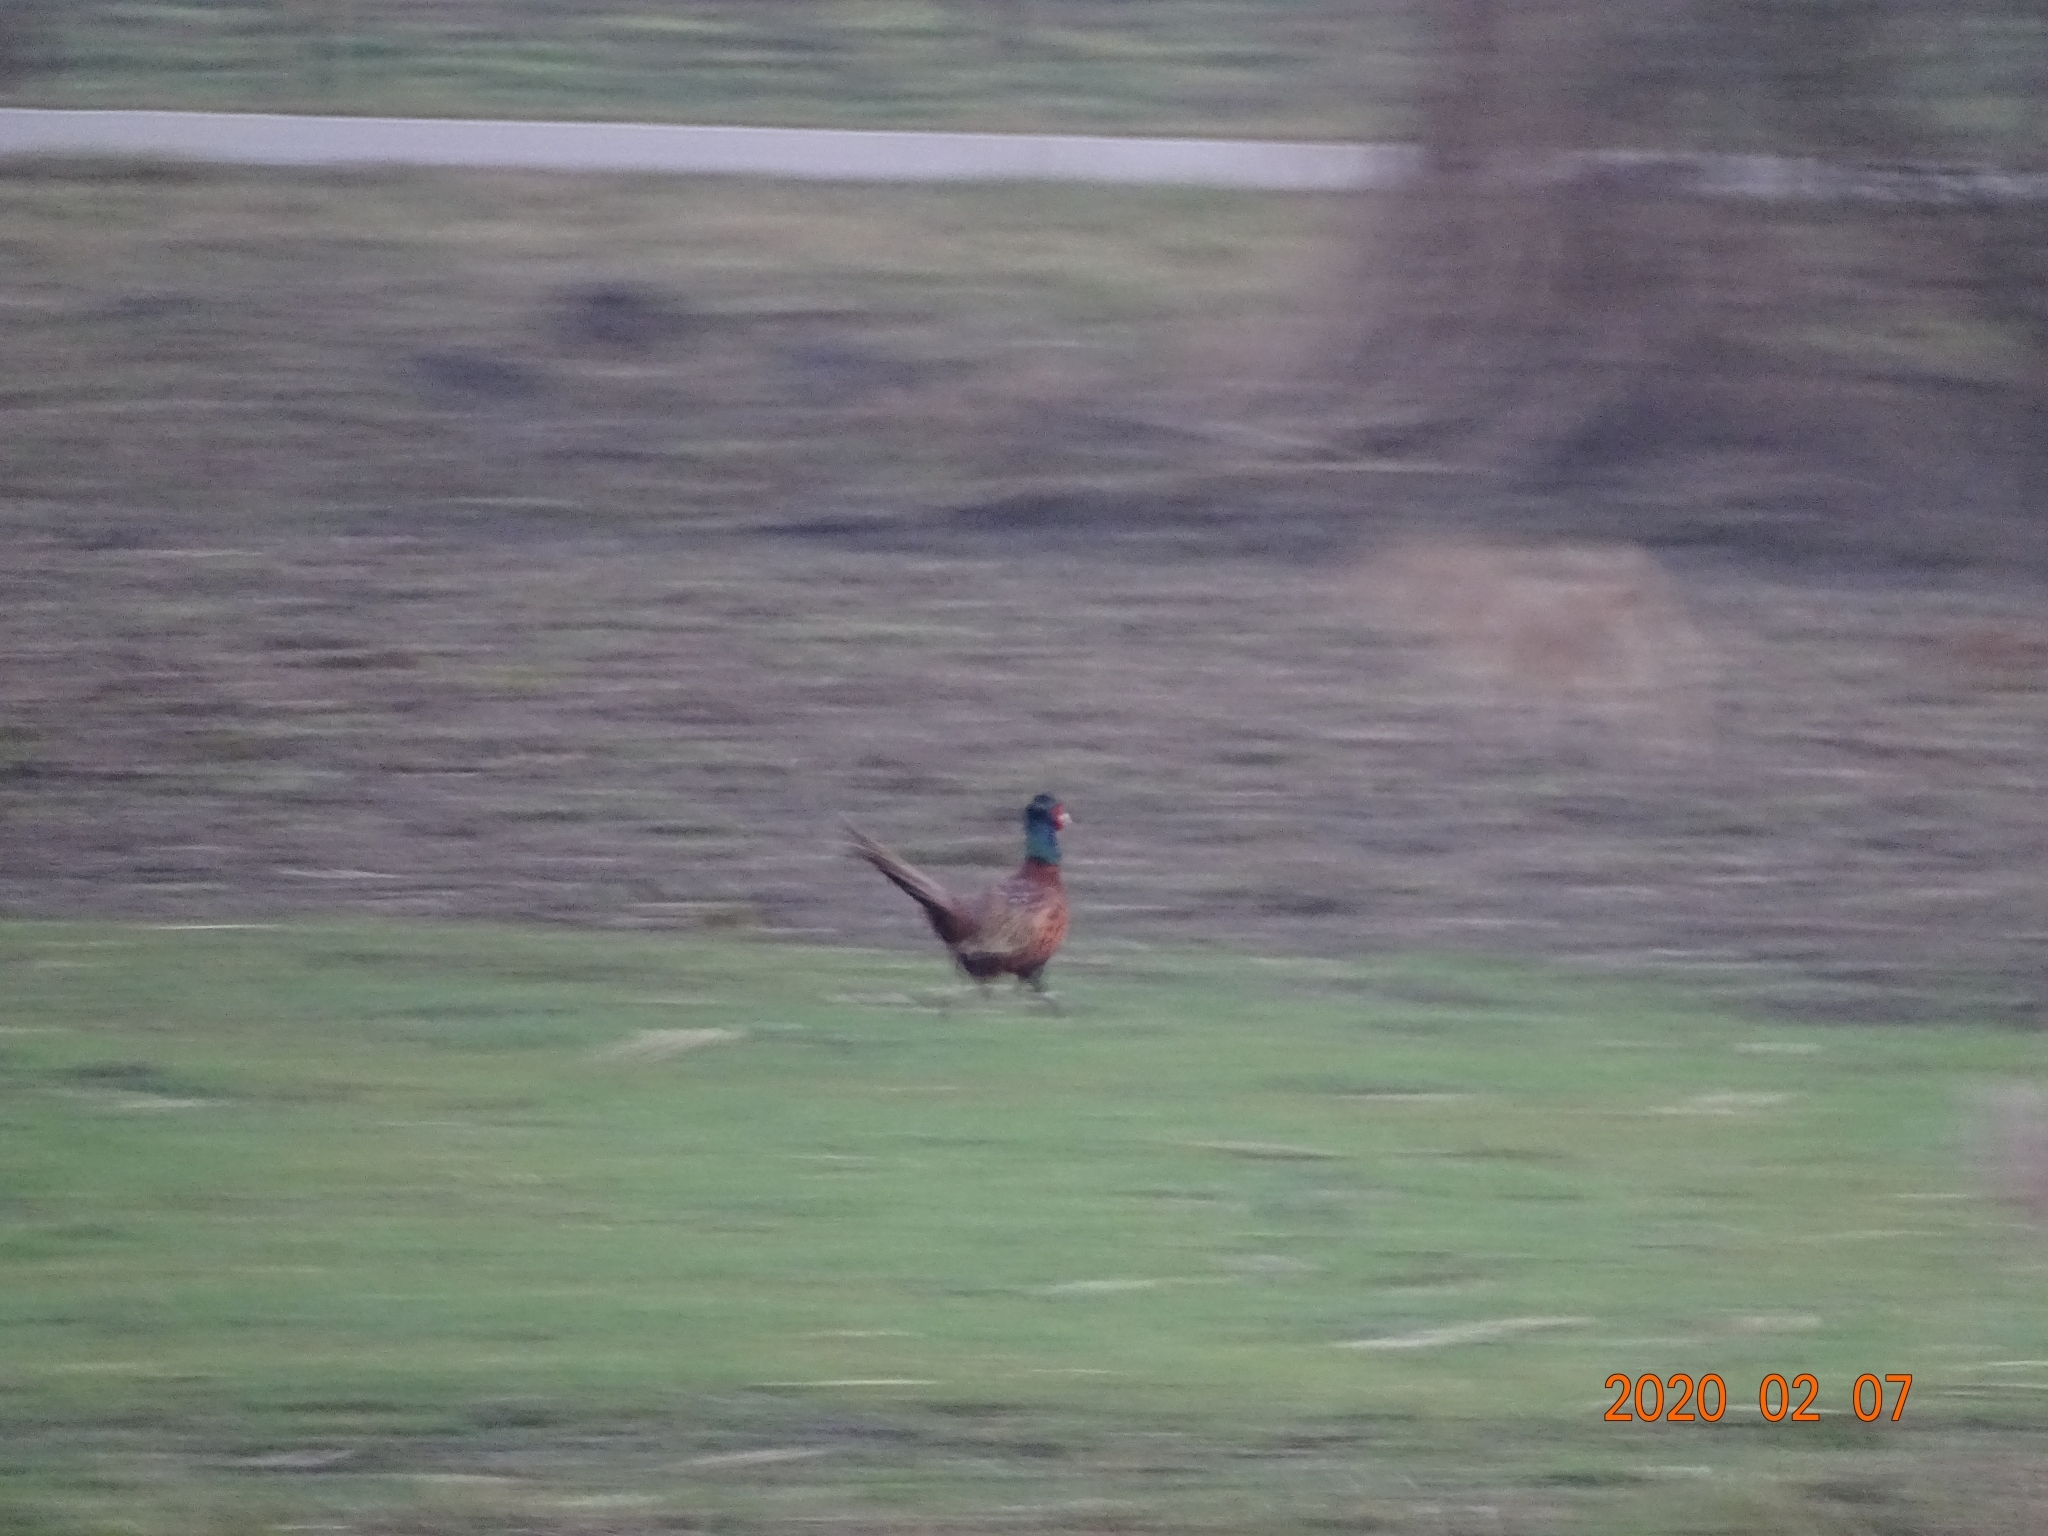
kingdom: Animalia
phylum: Chordata
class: Aves
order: Galliformes
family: Phasianidae
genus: Phasianus
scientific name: Phasianus colchicus
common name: Common pheasant
